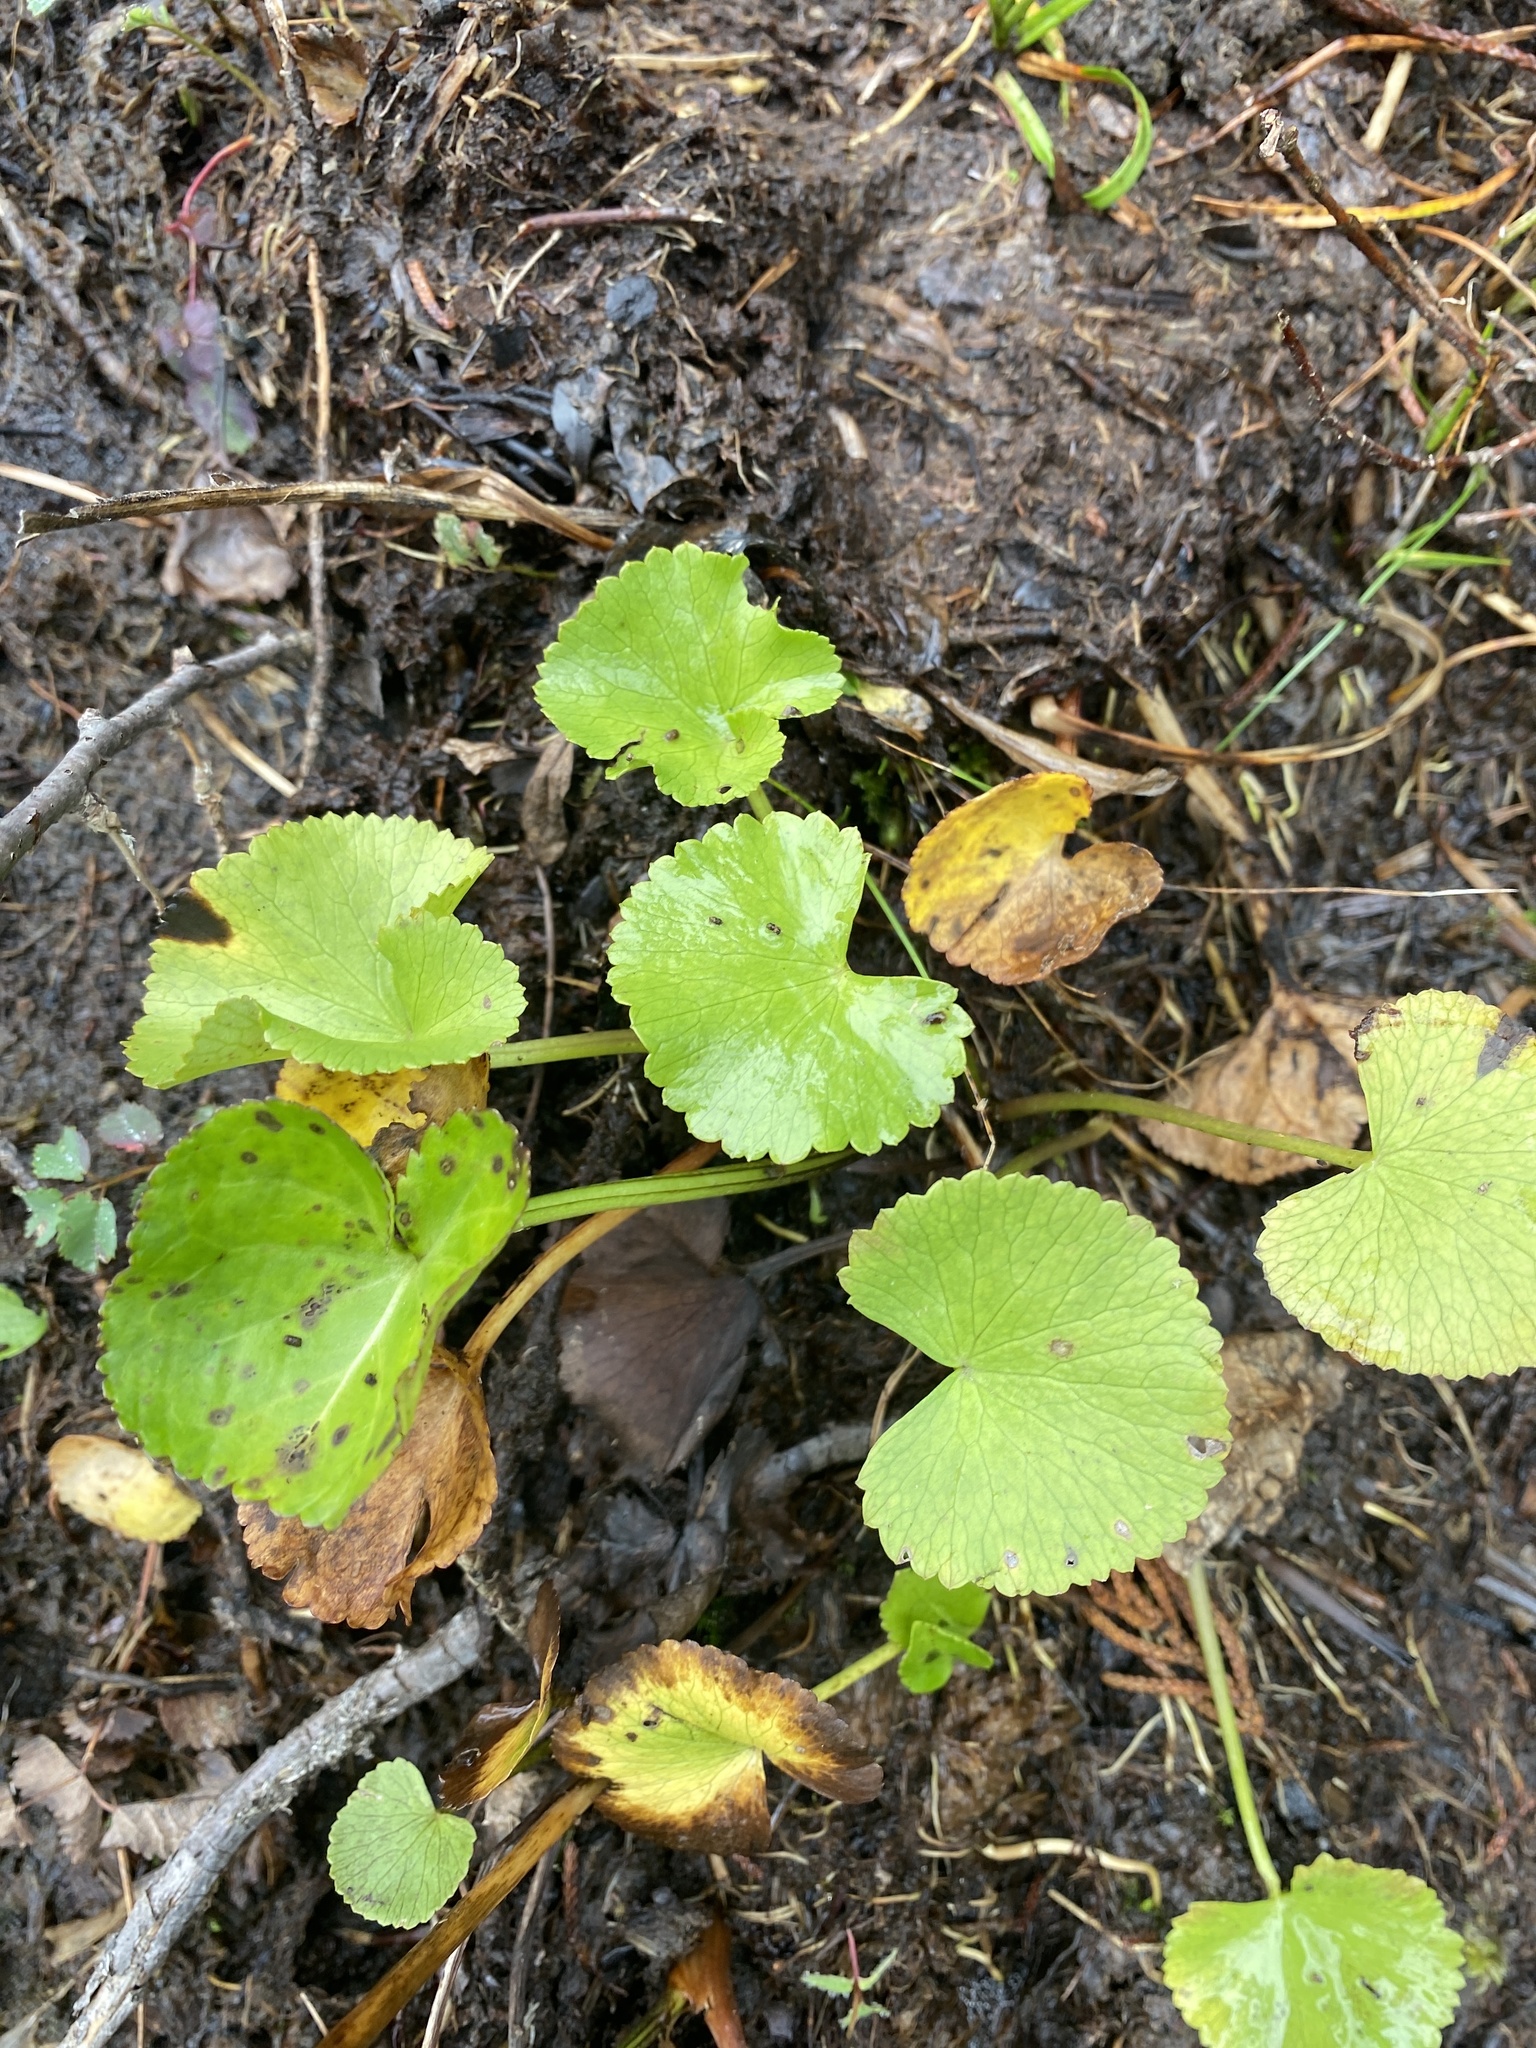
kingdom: Plantae
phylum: Tracheophyta
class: Magnoliopsida
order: Asterales
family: Menyanthaceae
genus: Nephrophyllidium
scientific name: Nephrophyllidium crista-galli
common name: Deer-cabbage
